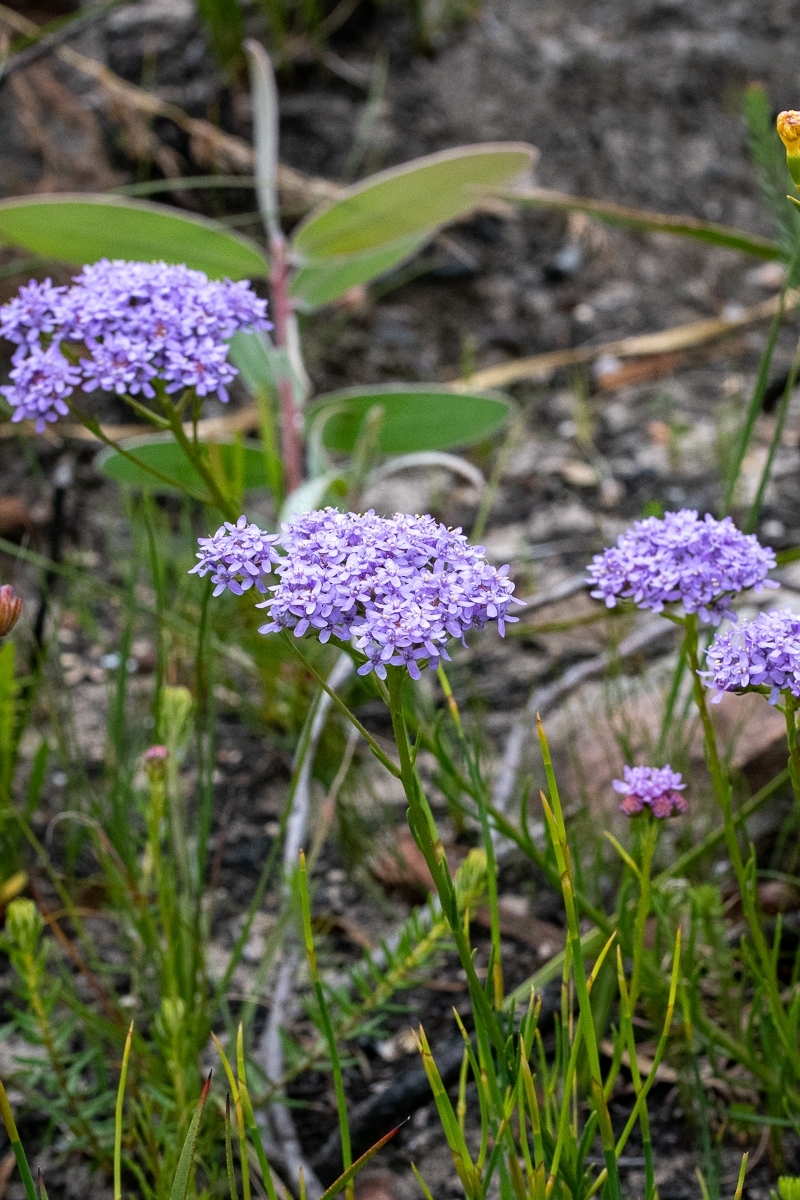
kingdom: Plantae
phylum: Tracheophyta
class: Magnoliopsida
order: Lamiales
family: Scrophulariaceae
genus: Pseudoselago
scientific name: Pseudoselago spuria
